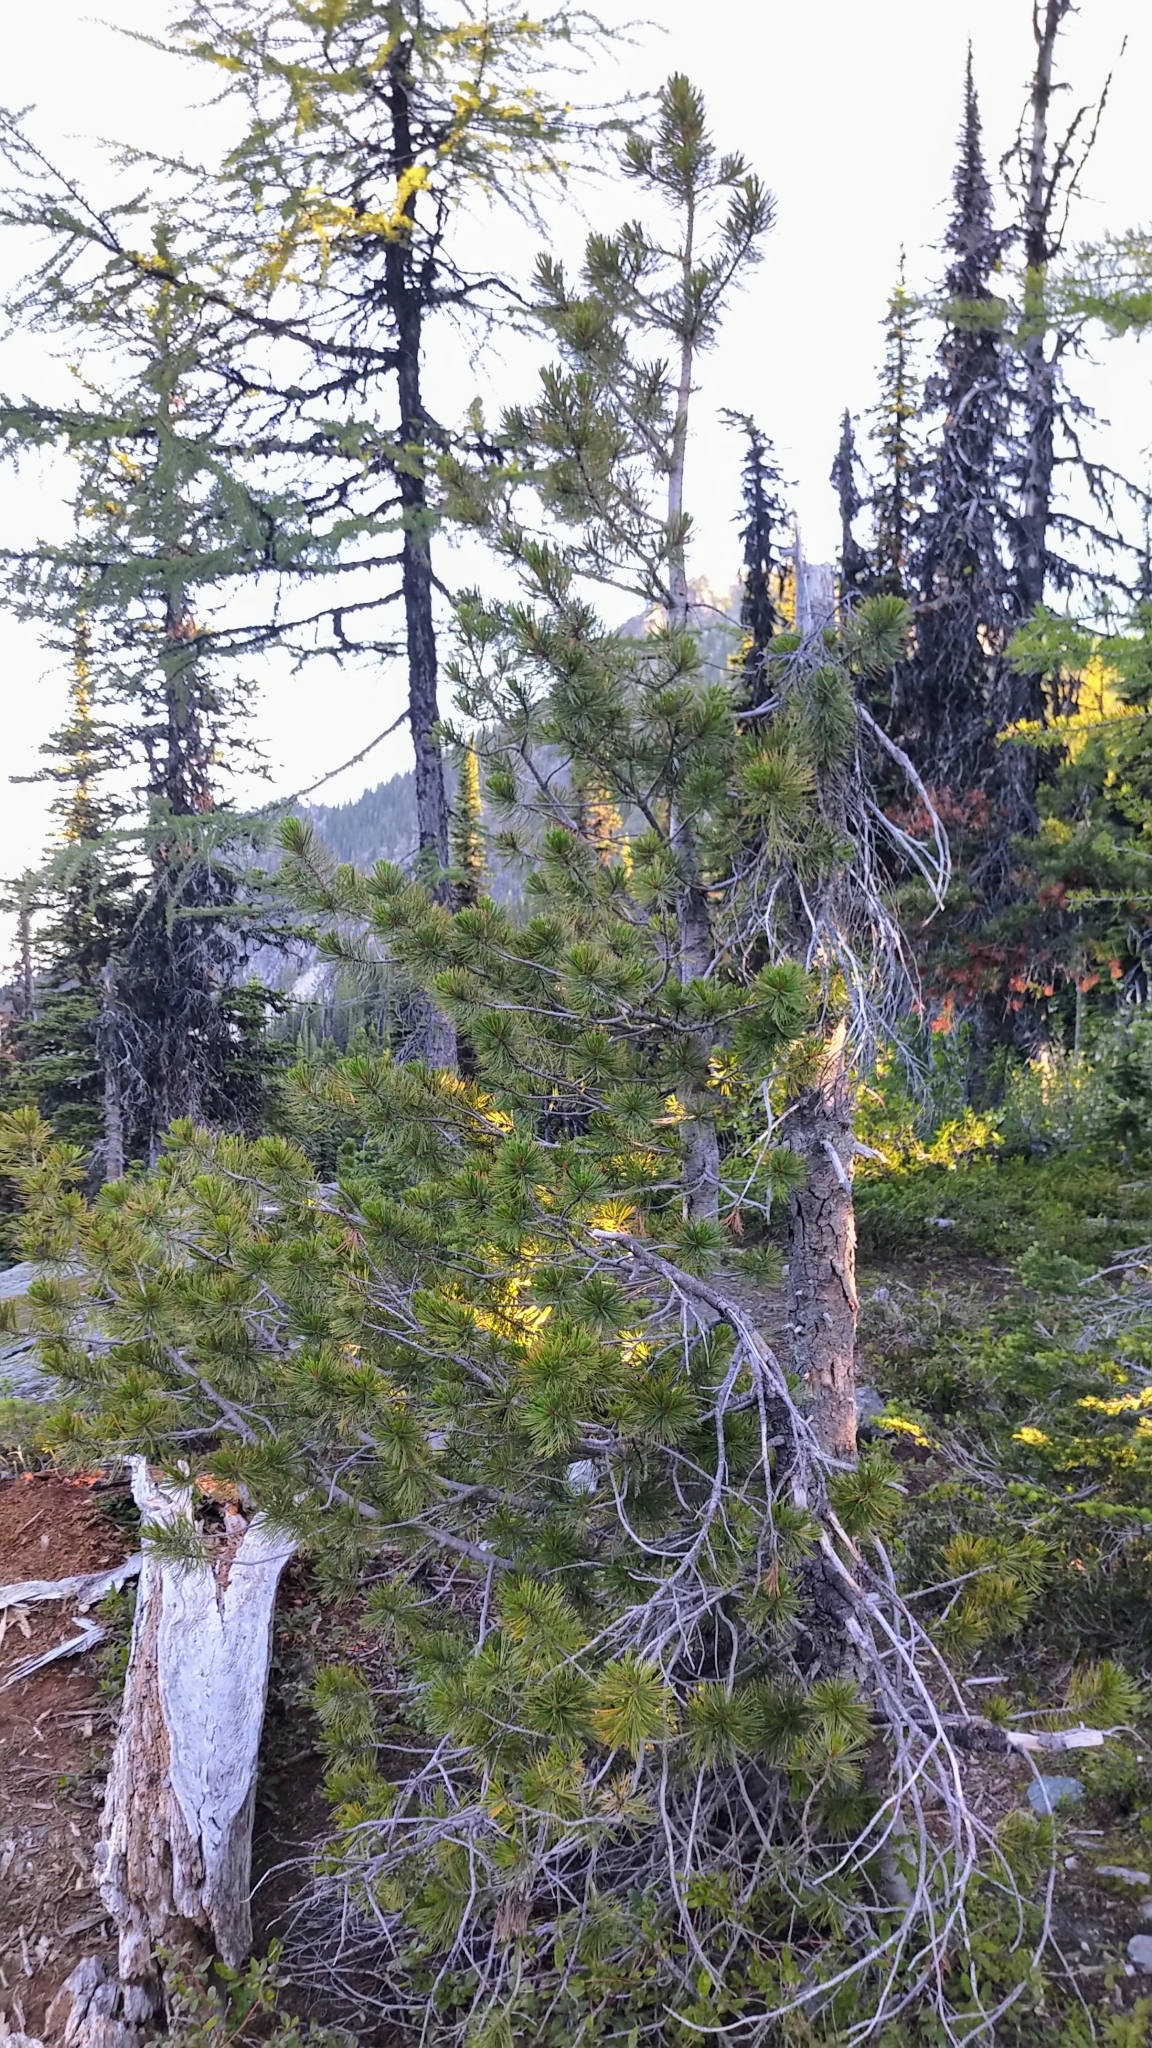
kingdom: Plantae
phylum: Tracheophyta
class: Pinopsida
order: Pinales
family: Pinaceae
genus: Pinus
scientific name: Pinus albicaulis
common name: Whitebark pine
